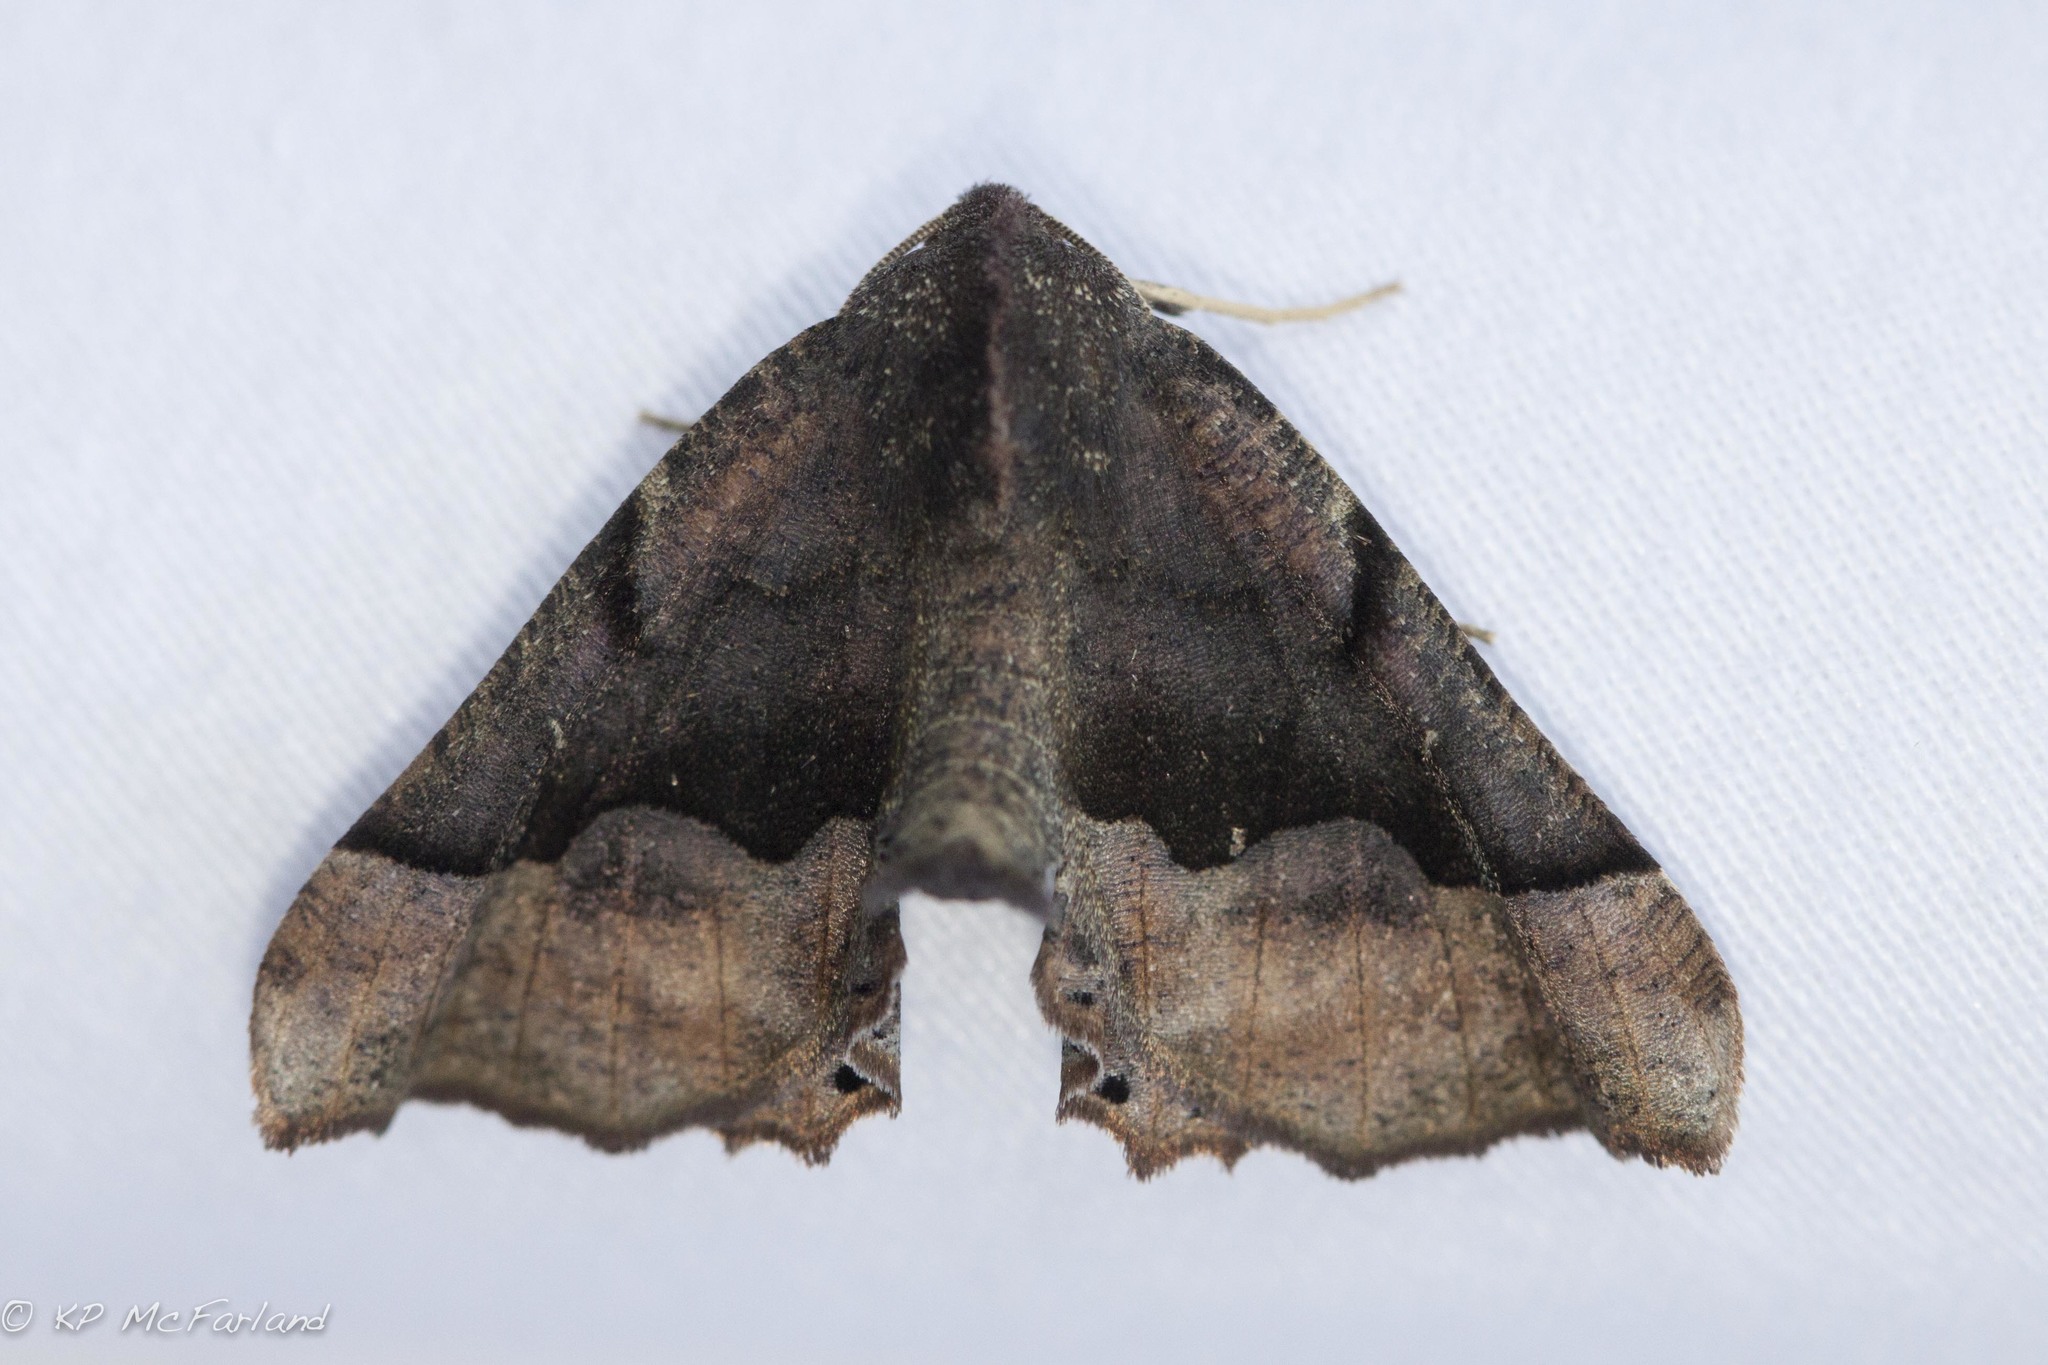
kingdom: Animalia
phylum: Arthropoda
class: Insecta
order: Lepidoptera
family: Geometridae
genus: Pero
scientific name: Pero ancetaria
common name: Hübner's pero
